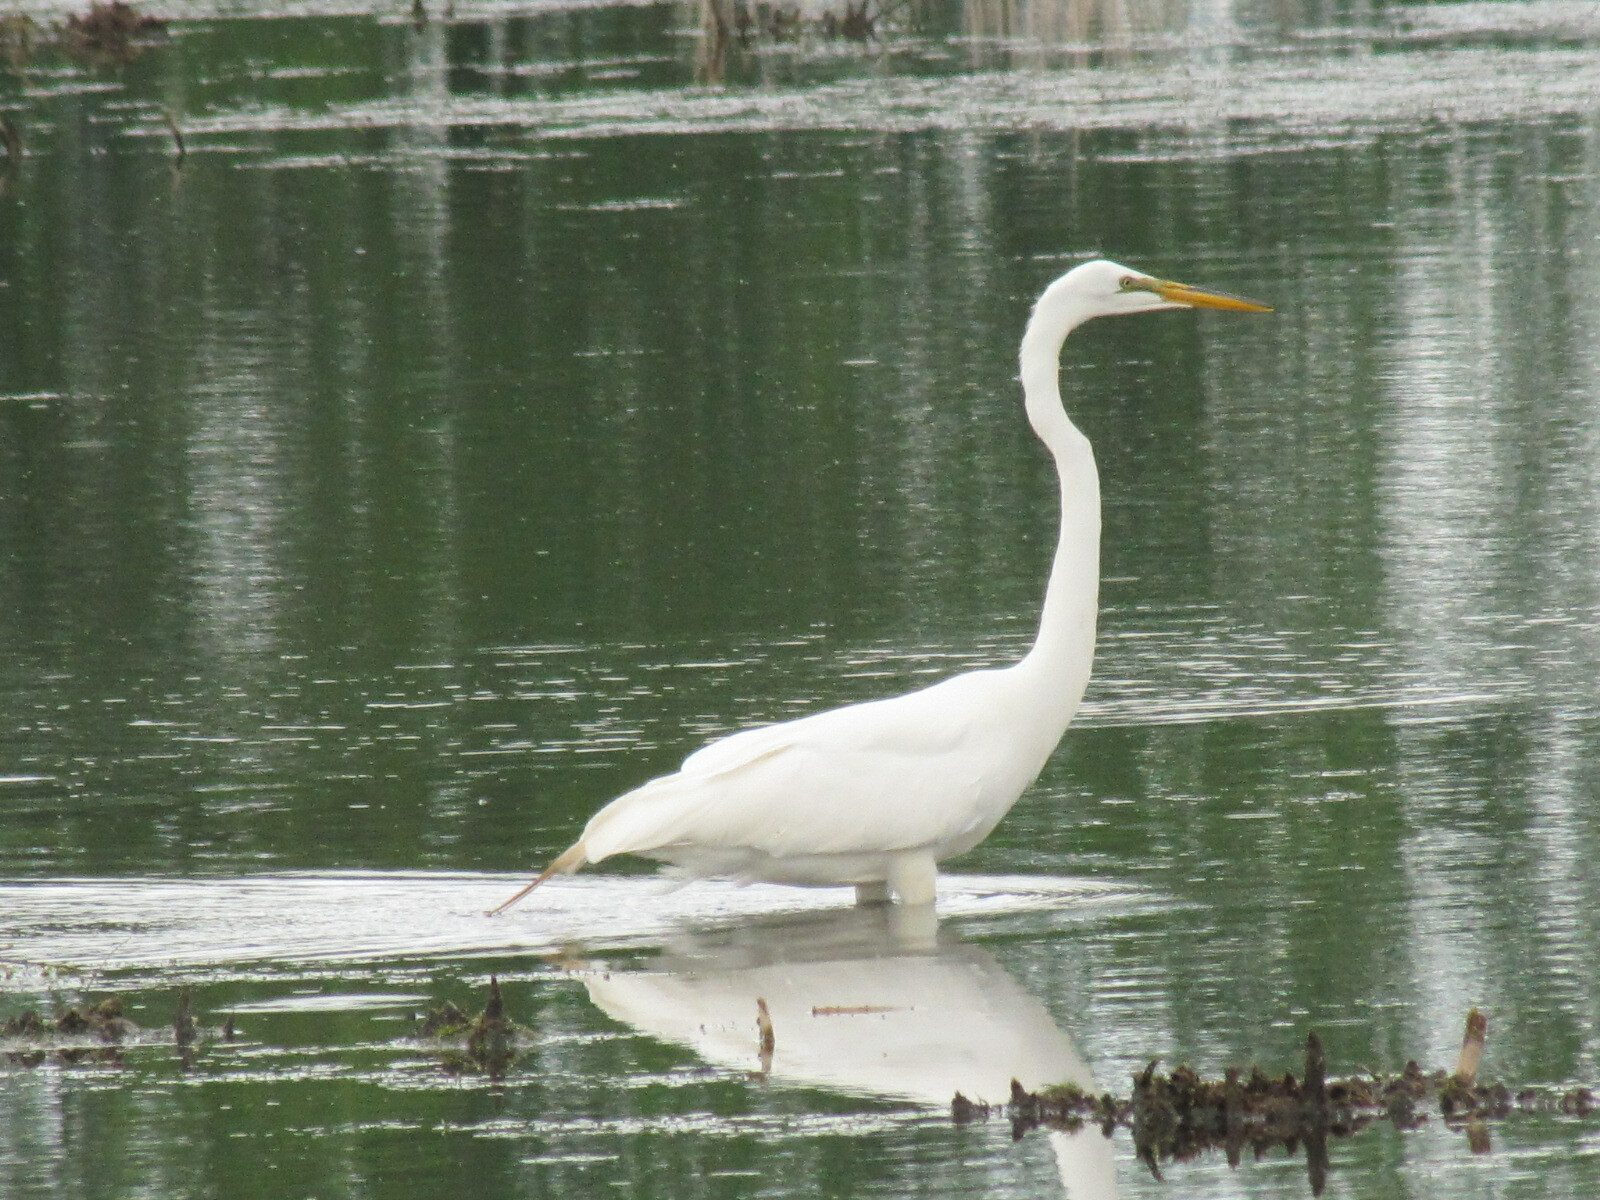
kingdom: Animalia
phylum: Chordata
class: Aves
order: Pelecaniformes
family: Ardeidae
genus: Ardea
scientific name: Ardea alba
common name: Great egret
